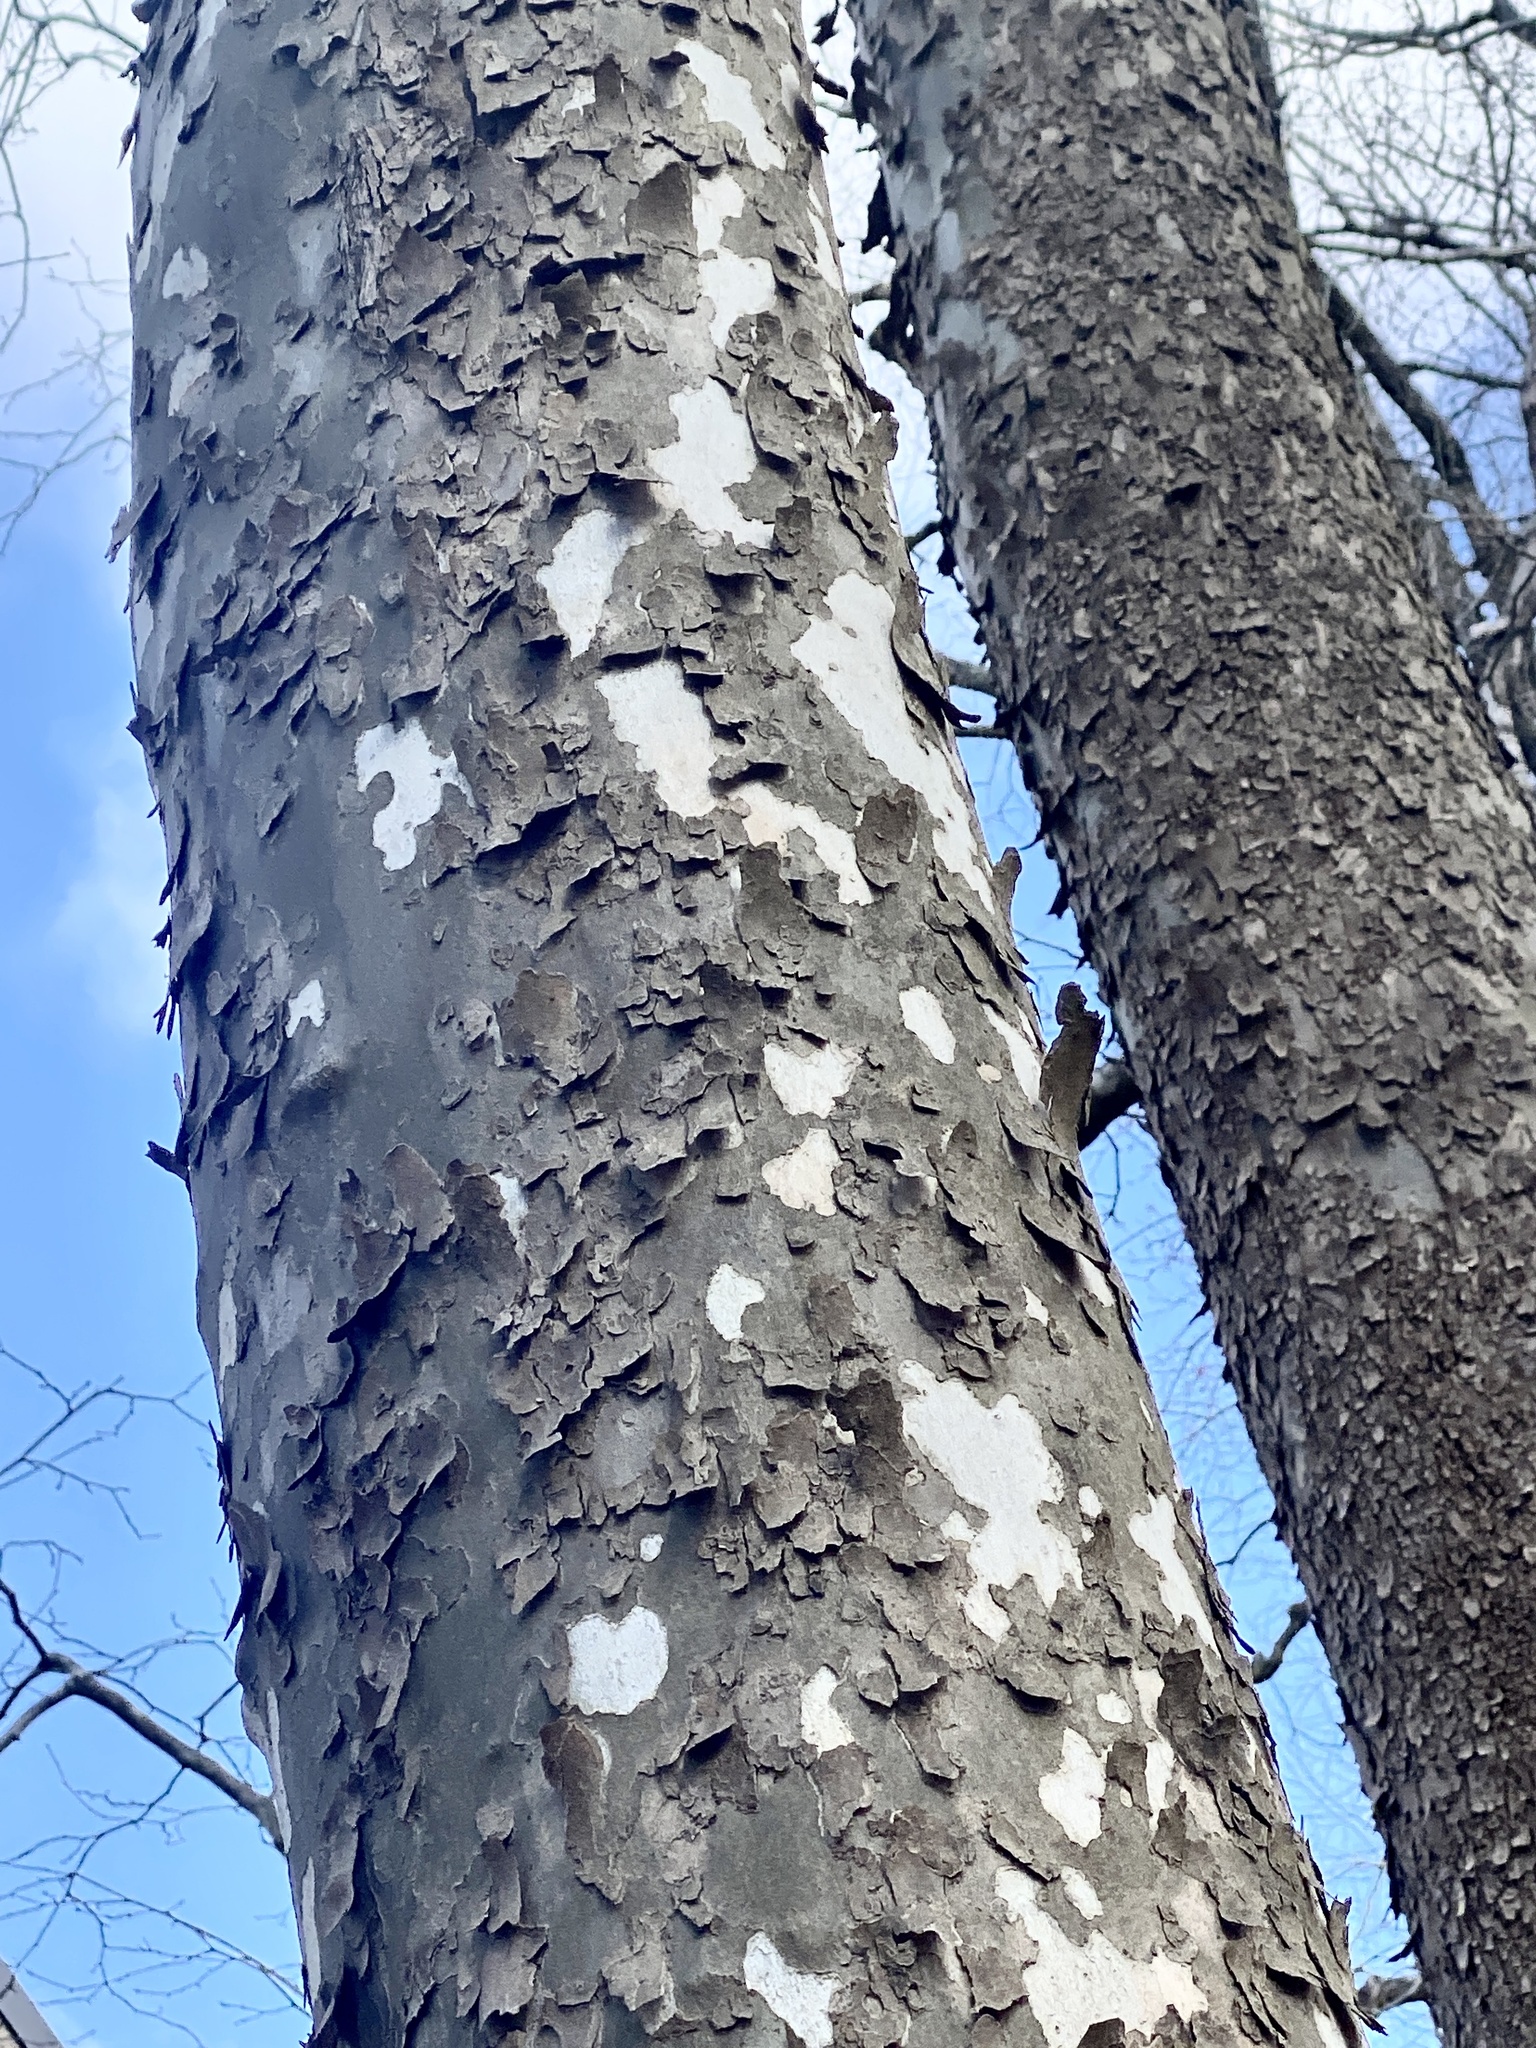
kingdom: Plantae
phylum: Tracheophyta
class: Magnoliopsida
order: Proteales
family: Platanaceae
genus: Platanus
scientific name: Platanus occidentalis
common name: American sycamore
